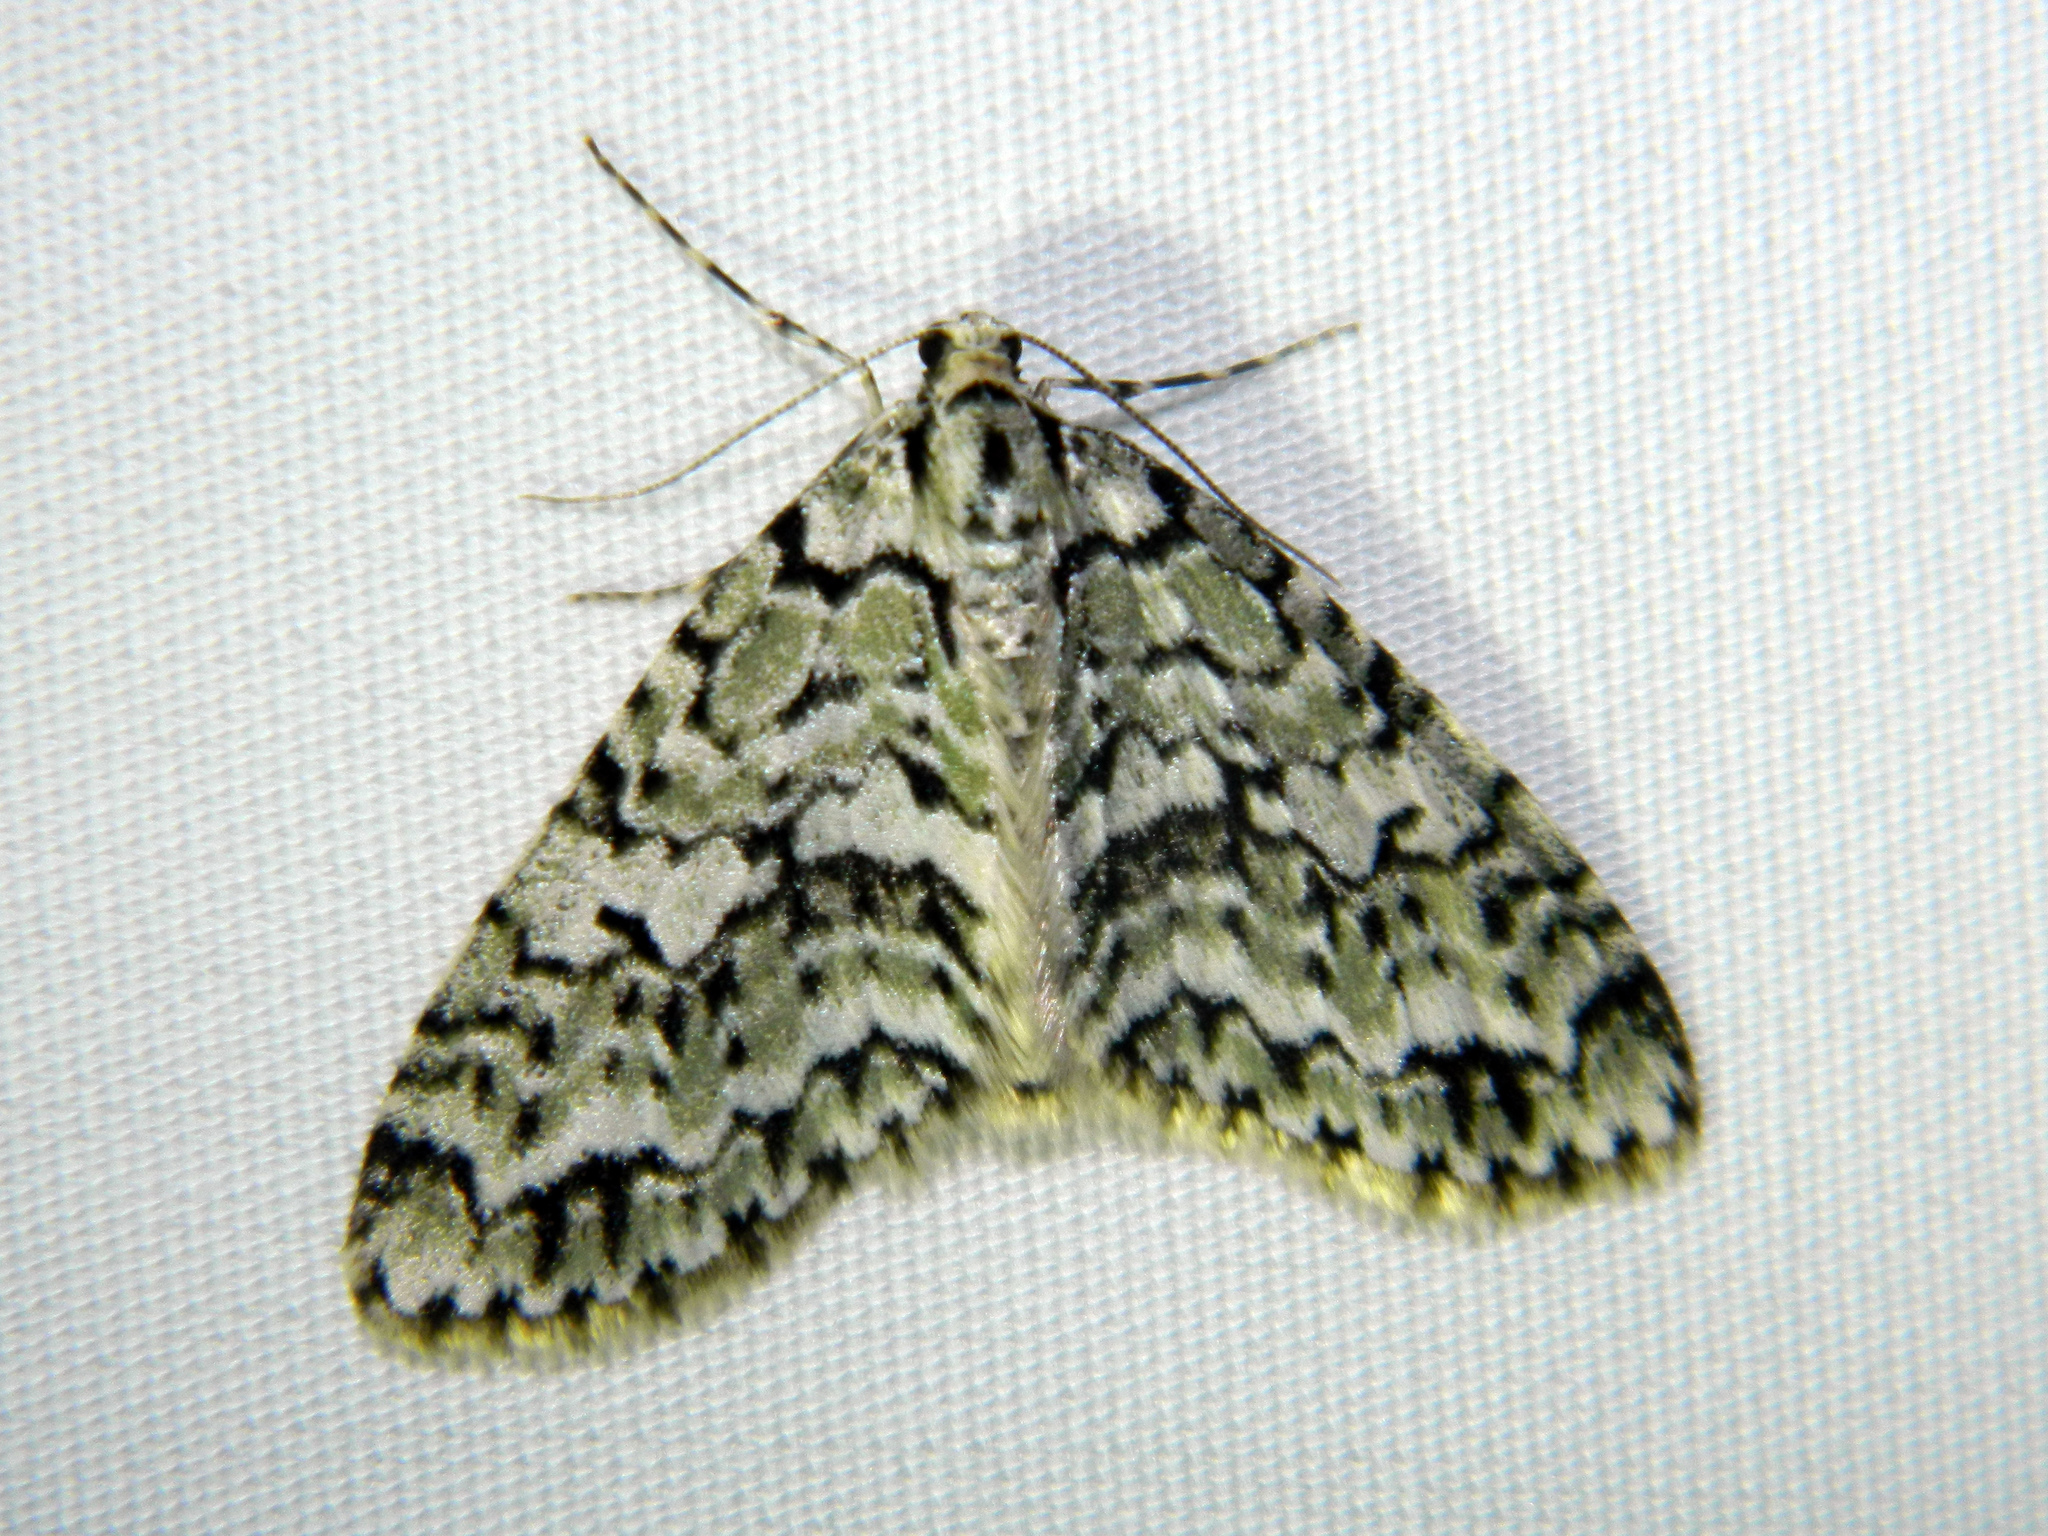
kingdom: Animalia
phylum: Arthropoda
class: Insecta
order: Lepidoptera
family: Geometridae
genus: Cladara
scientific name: Cladara atroliturata
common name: Scribbler
